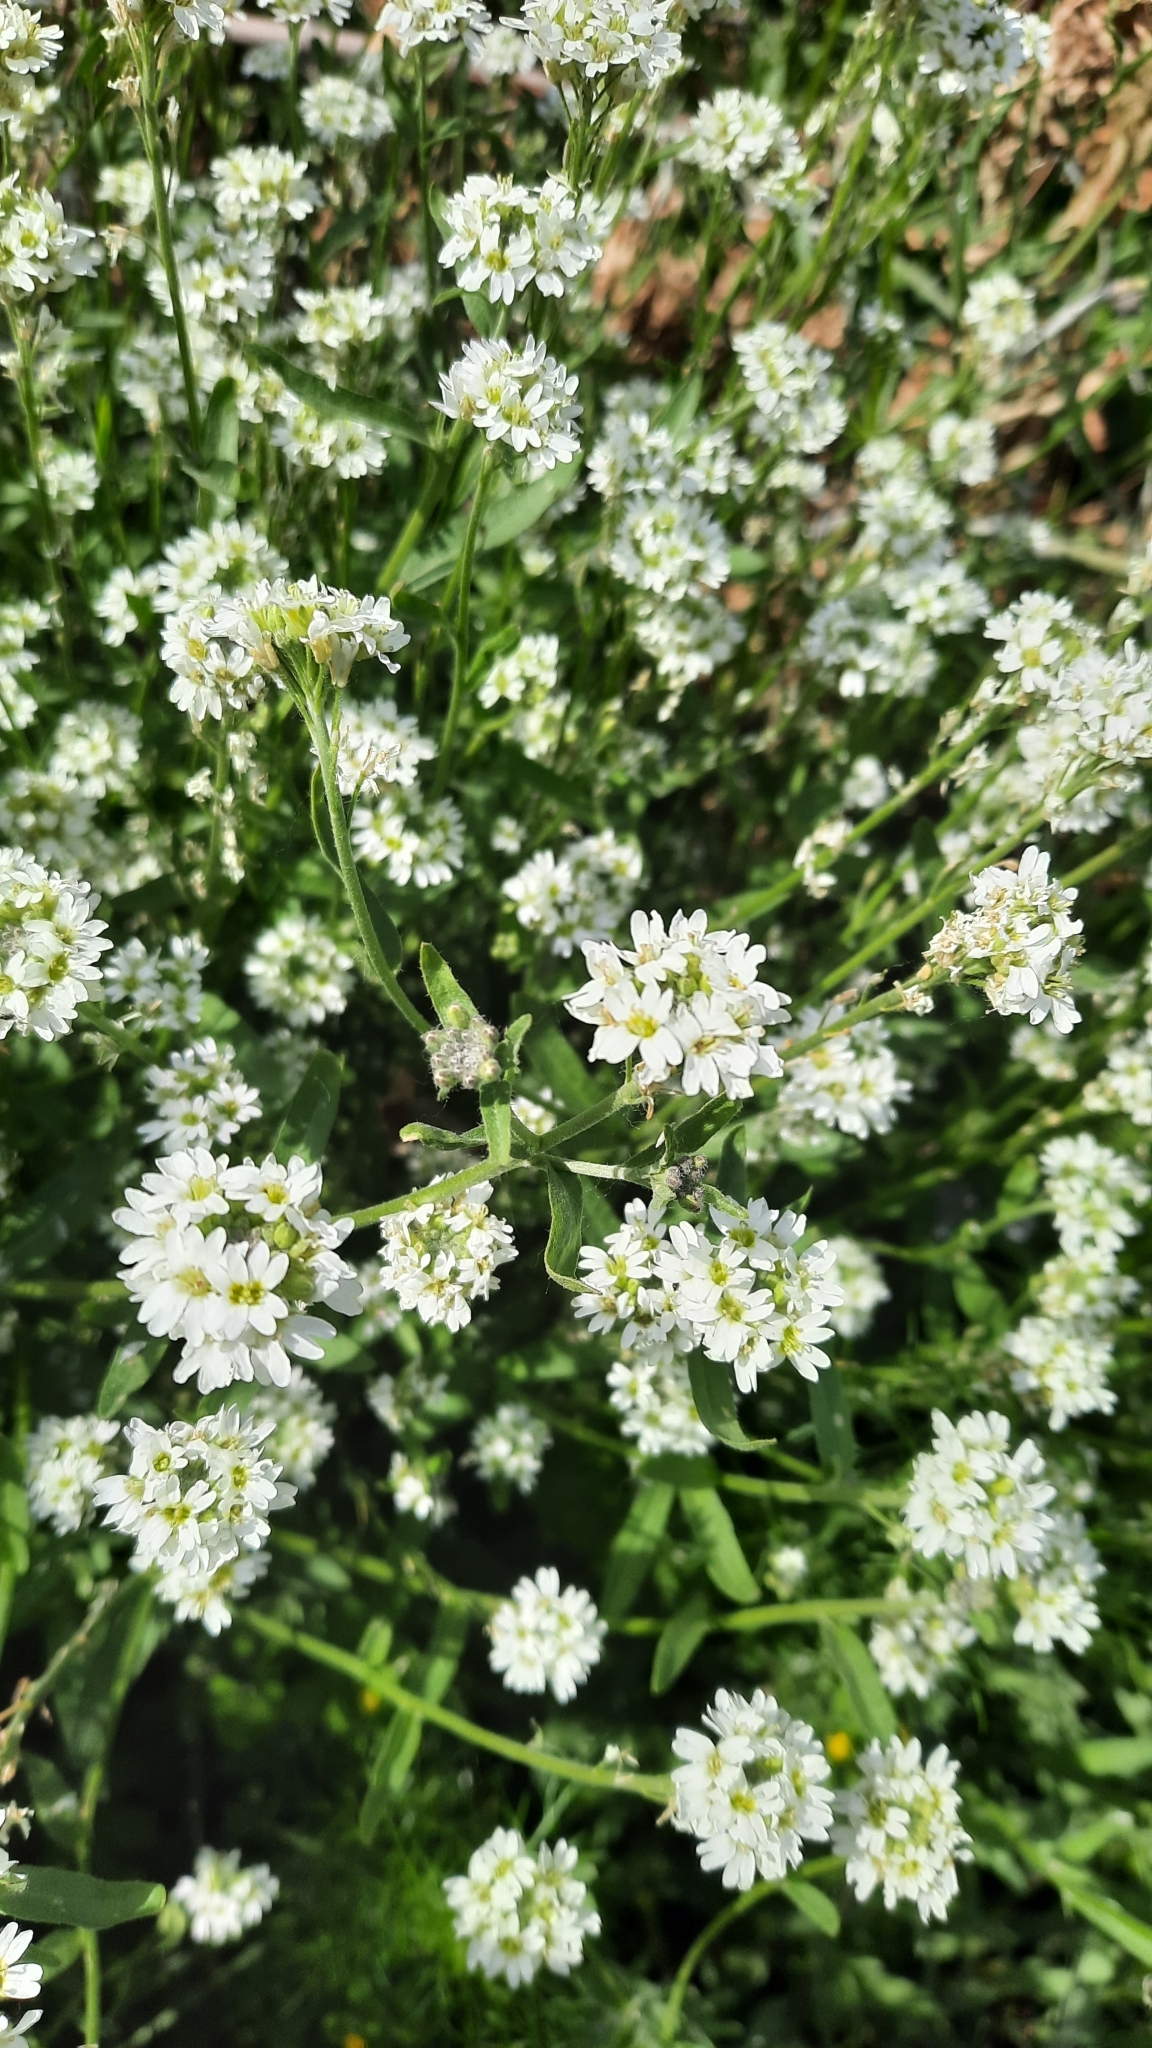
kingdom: Plantae
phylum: Tracheophyta
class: Magnoliopsida
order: Brassicales
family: Brassicaceae
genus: Berteroa
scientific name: Berteroa incana
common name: Hoary alison
